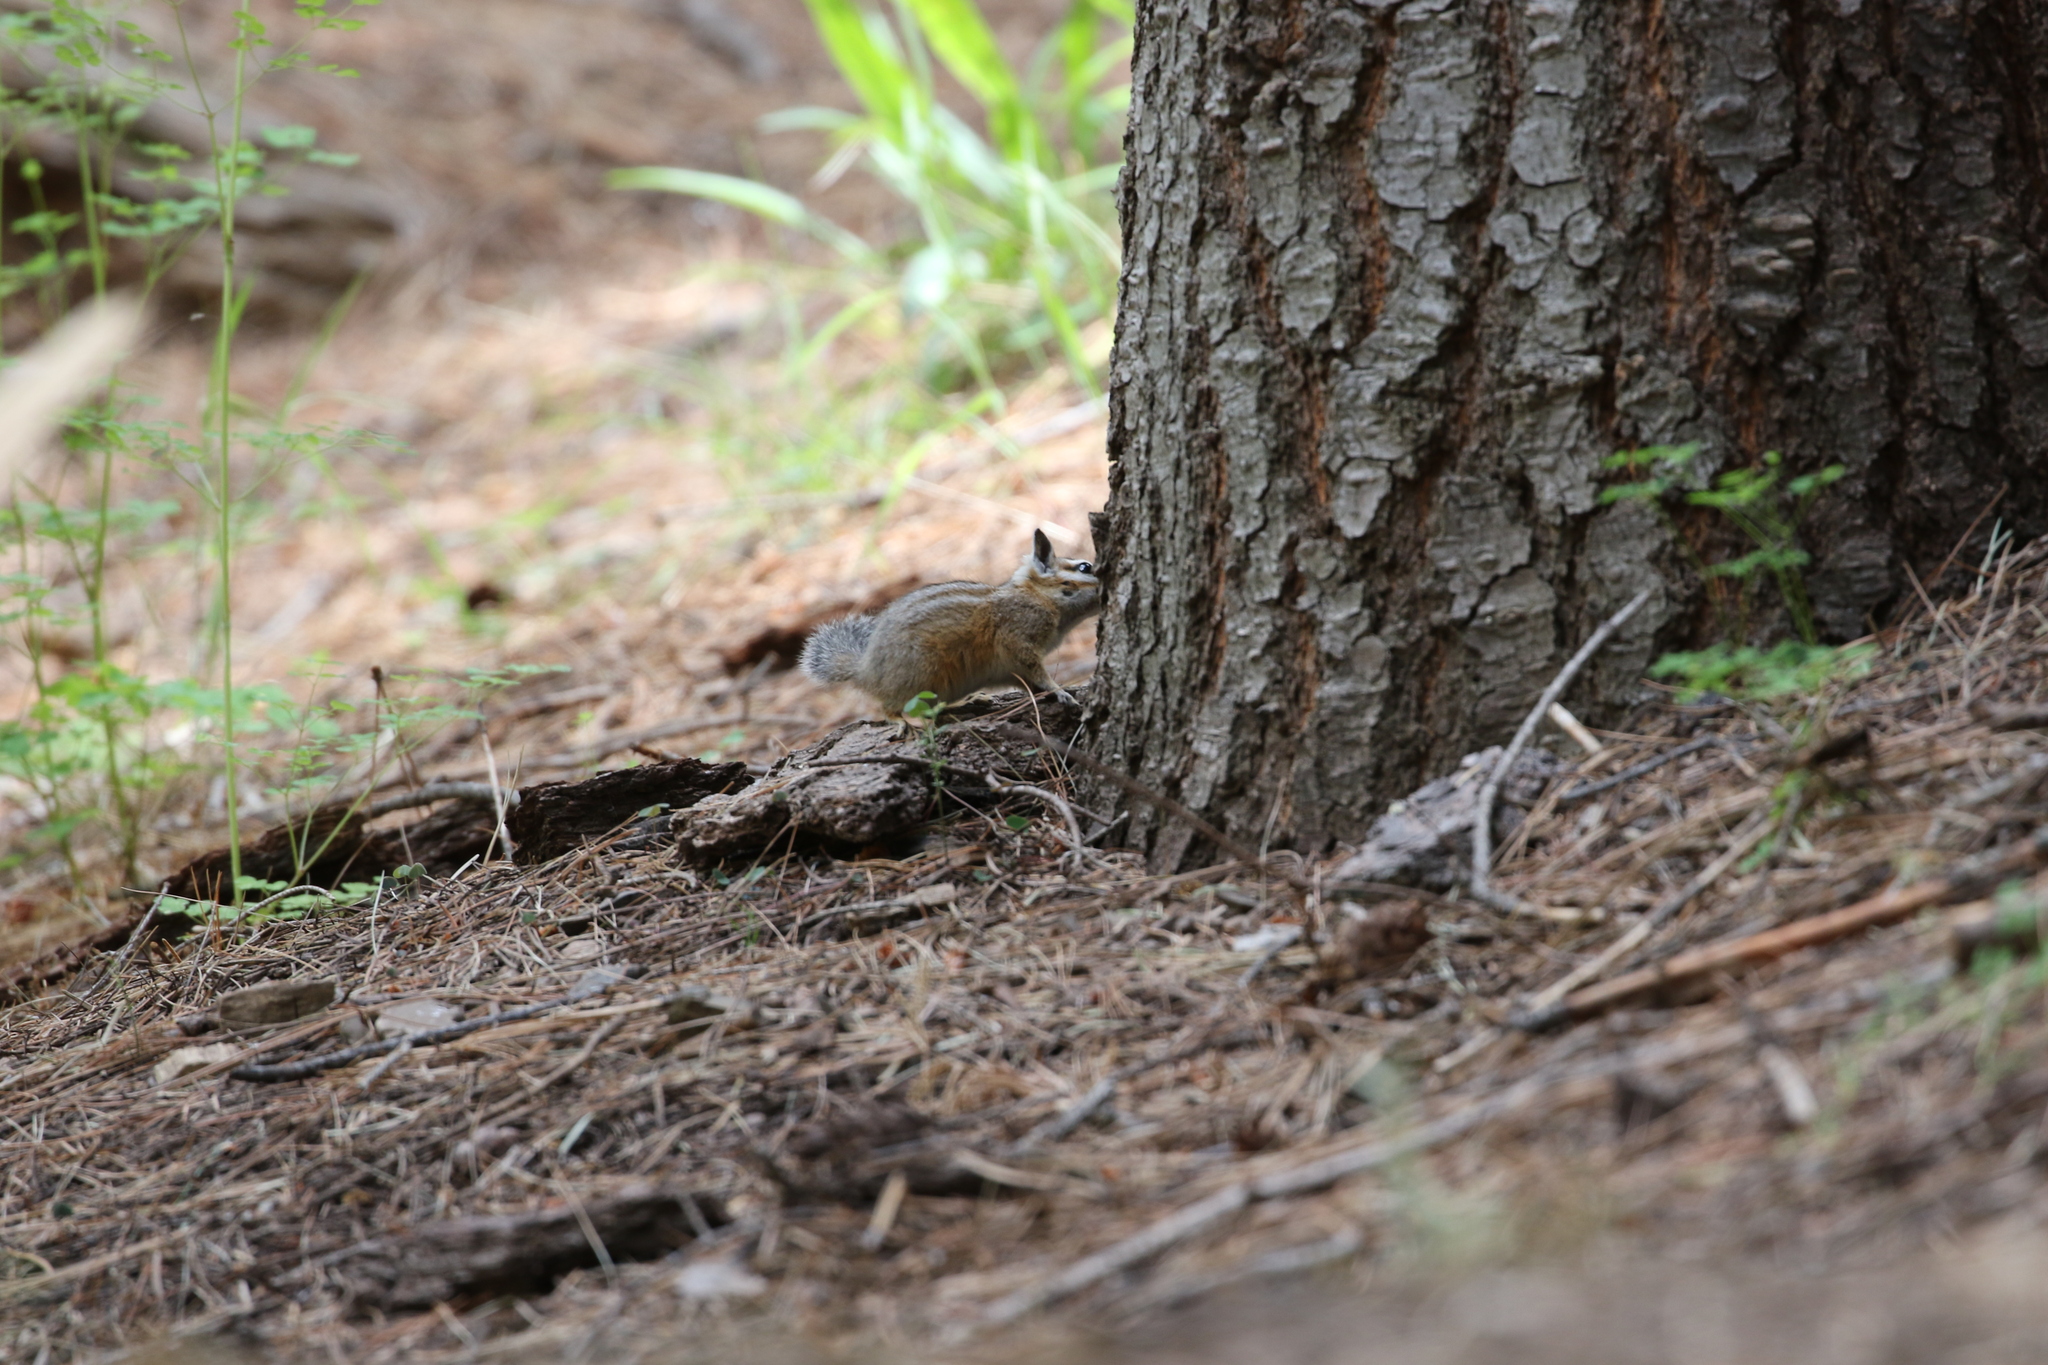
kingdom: Animalia
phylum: Chordata
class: Mammalia
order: Rodentia
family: Sciuridae
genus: Tamias
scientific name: Tamias dorsalis
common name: Cliff chipmunk
